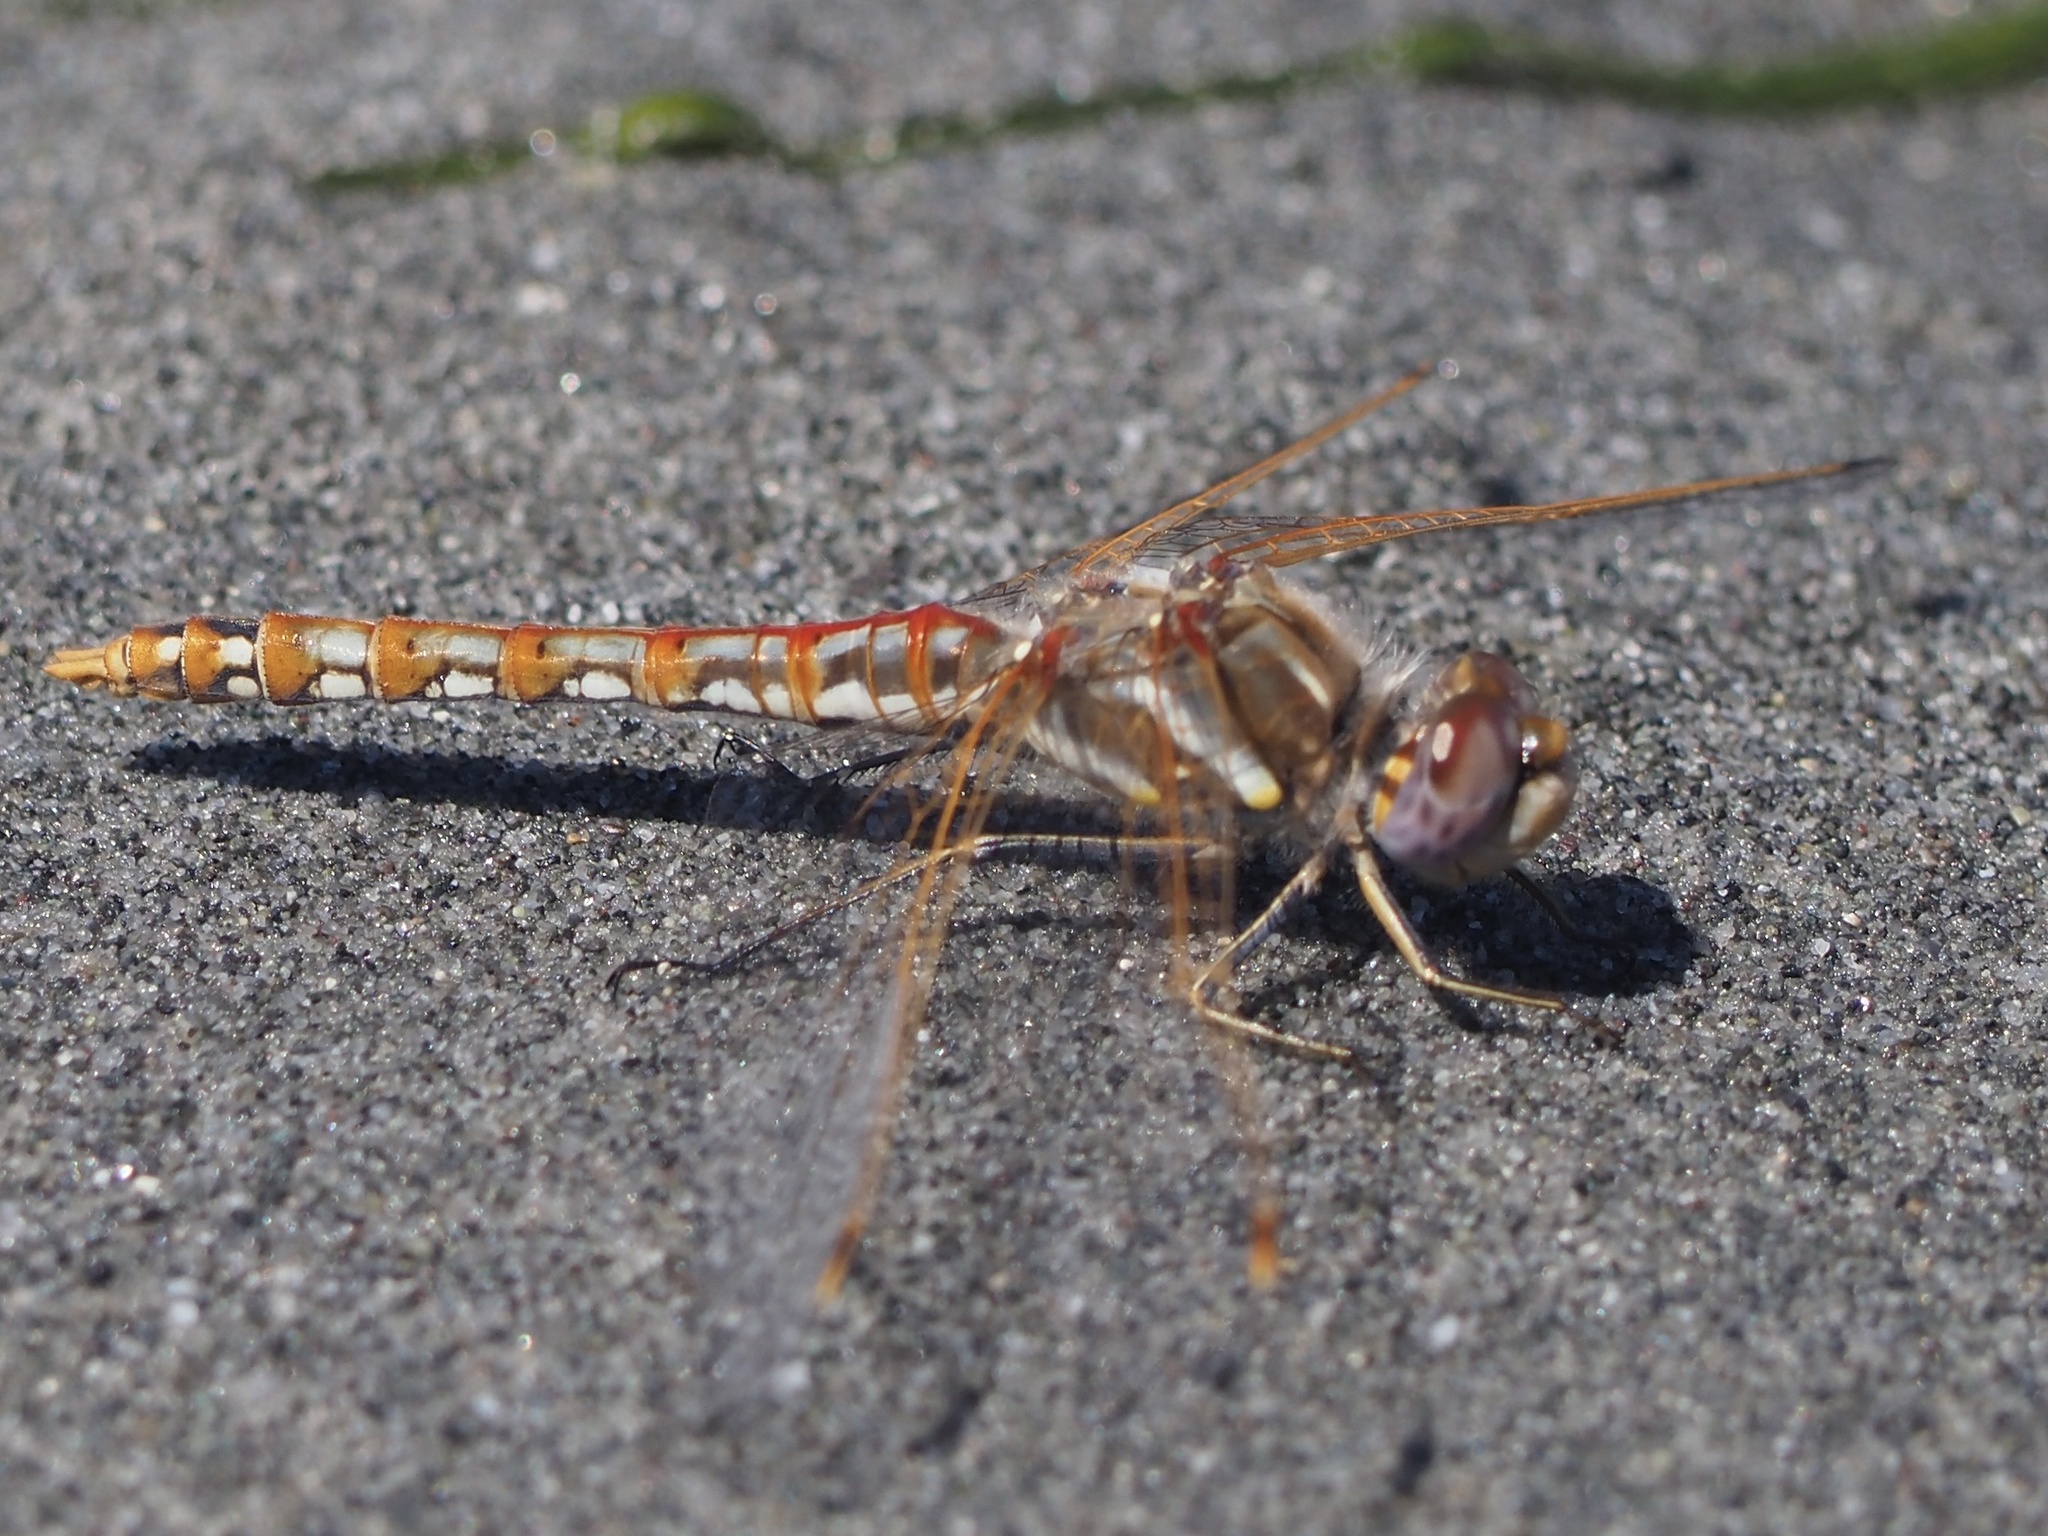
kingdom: Animalia
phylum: Arthropoda
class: Insecta
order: Odonata
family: Libellulidae
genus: Sympetrum
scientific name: Sympetrum corruptum
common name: Variegated meadowhawk
